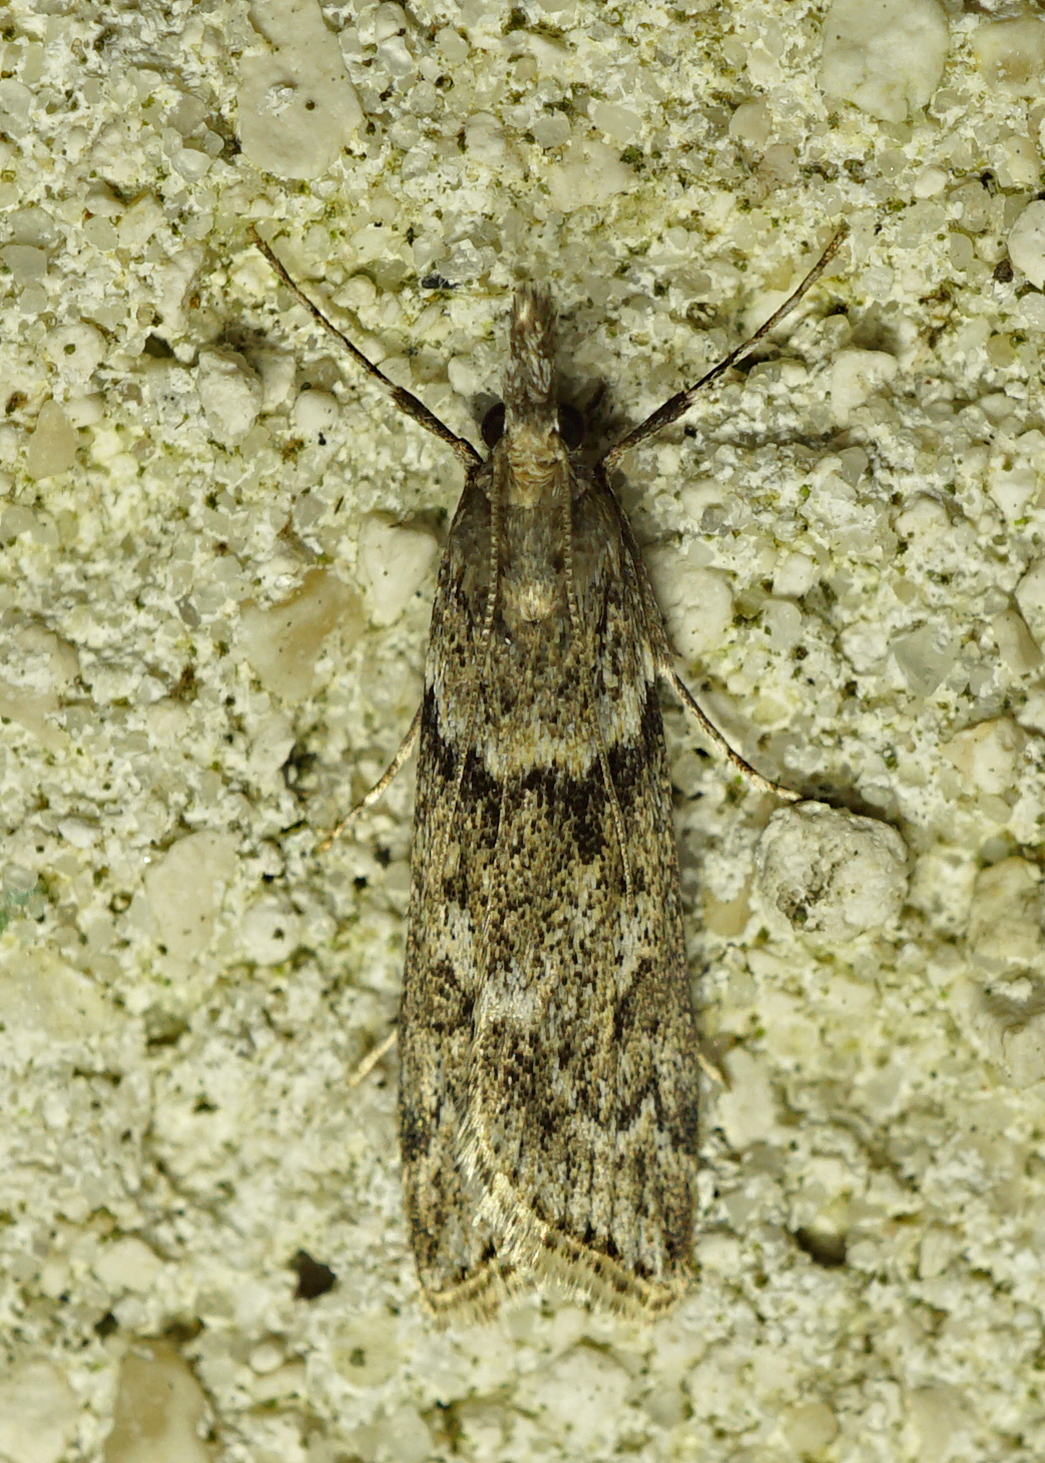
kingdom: Animalia
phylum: Arthropoda
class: Insecta
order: Lepidoptera
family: Crambidae
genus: Eudonia
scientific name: Eudonia angustea
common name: Narrow-winged grey
